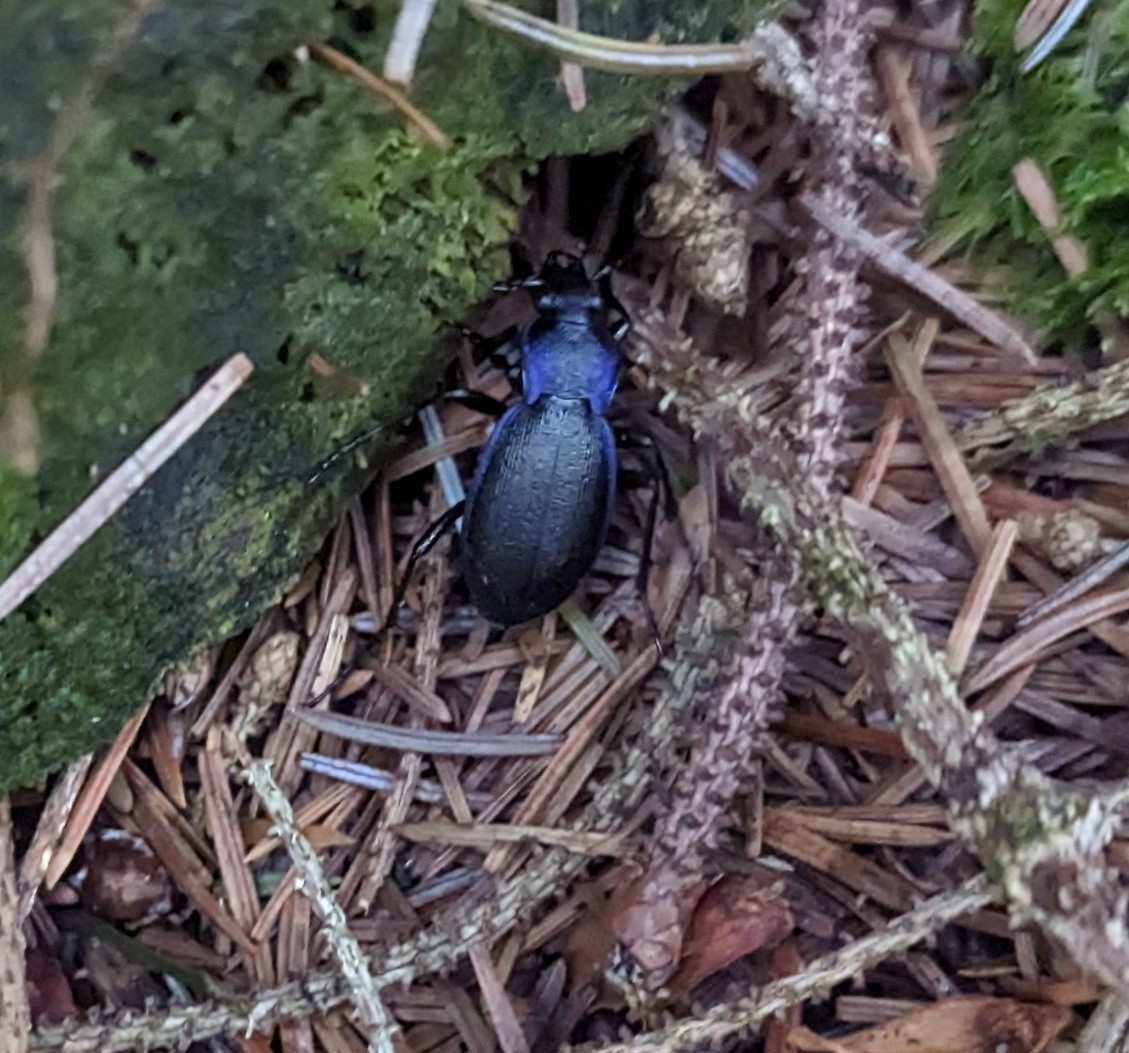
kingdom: Animalia
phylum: Arthropoda
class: Insecta
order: Coleoptera
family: Carabidae
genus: Carabus
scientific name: Carabus problematicus
